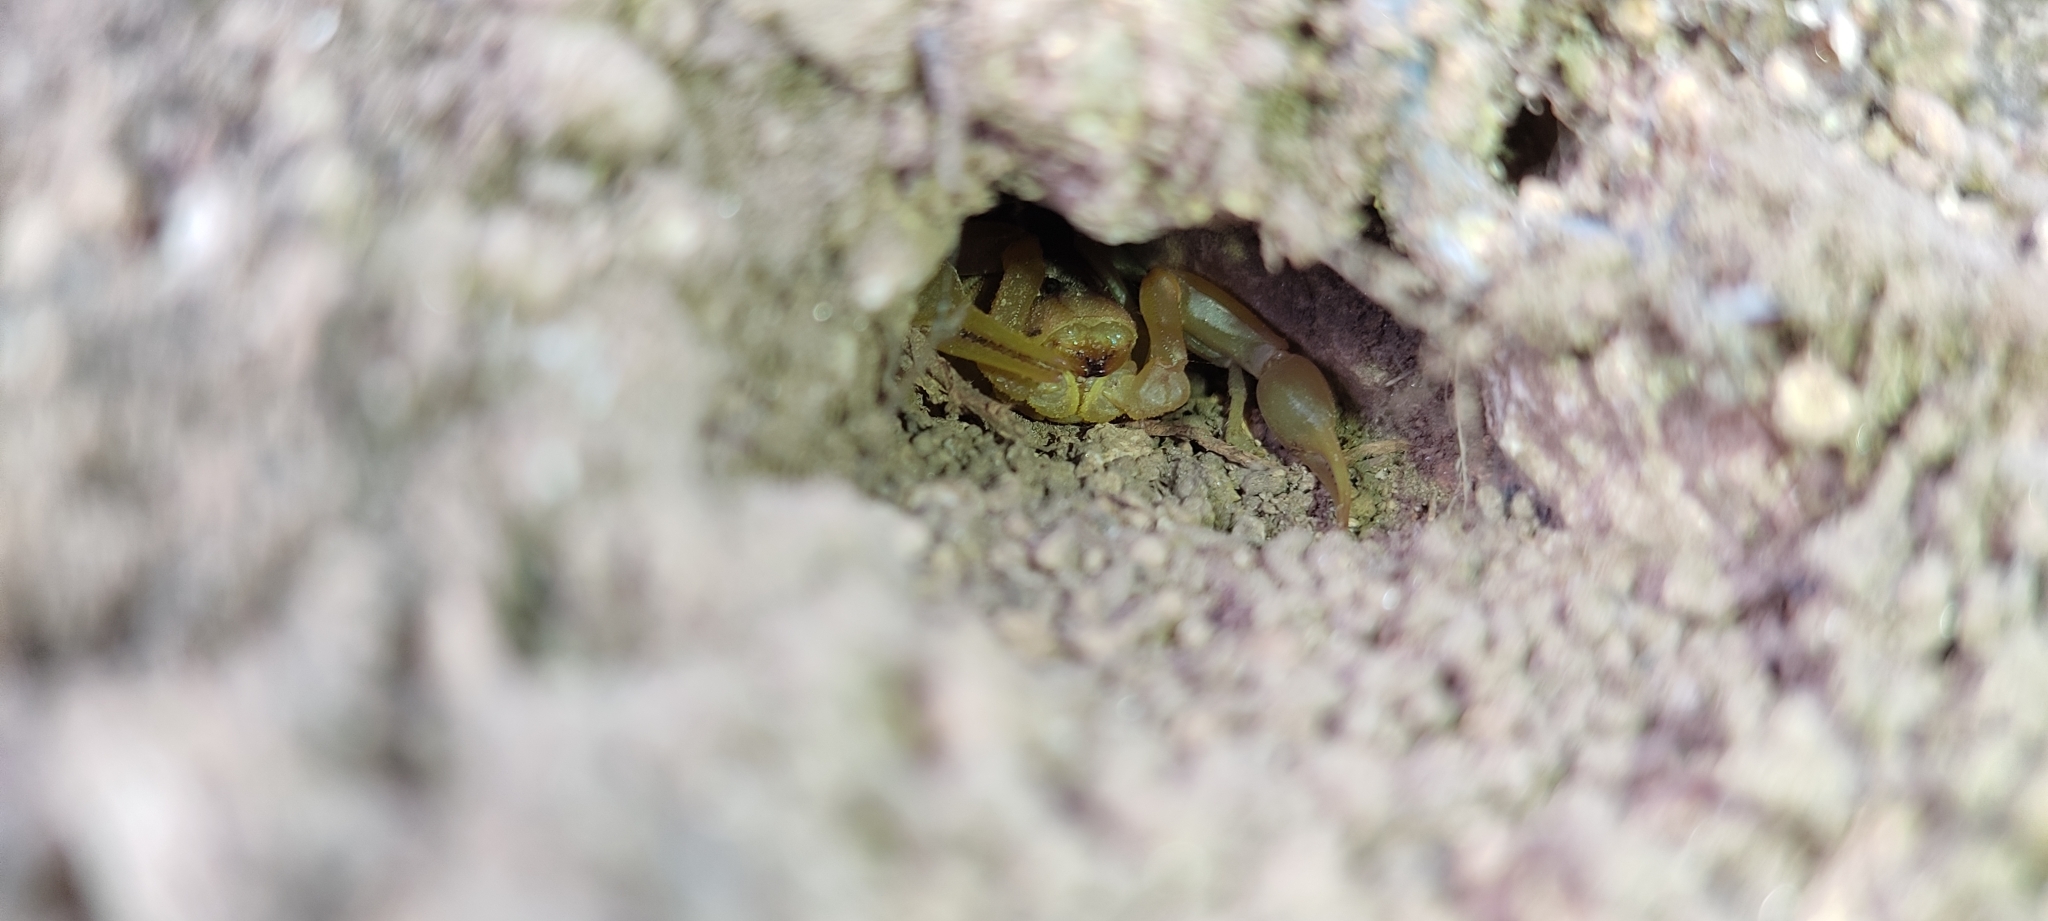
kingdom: Animalia
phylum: Arthropoda
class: Arachnida
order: Scorpiones
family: Buthidae
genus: Buthus
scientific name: Buthus occitanus
